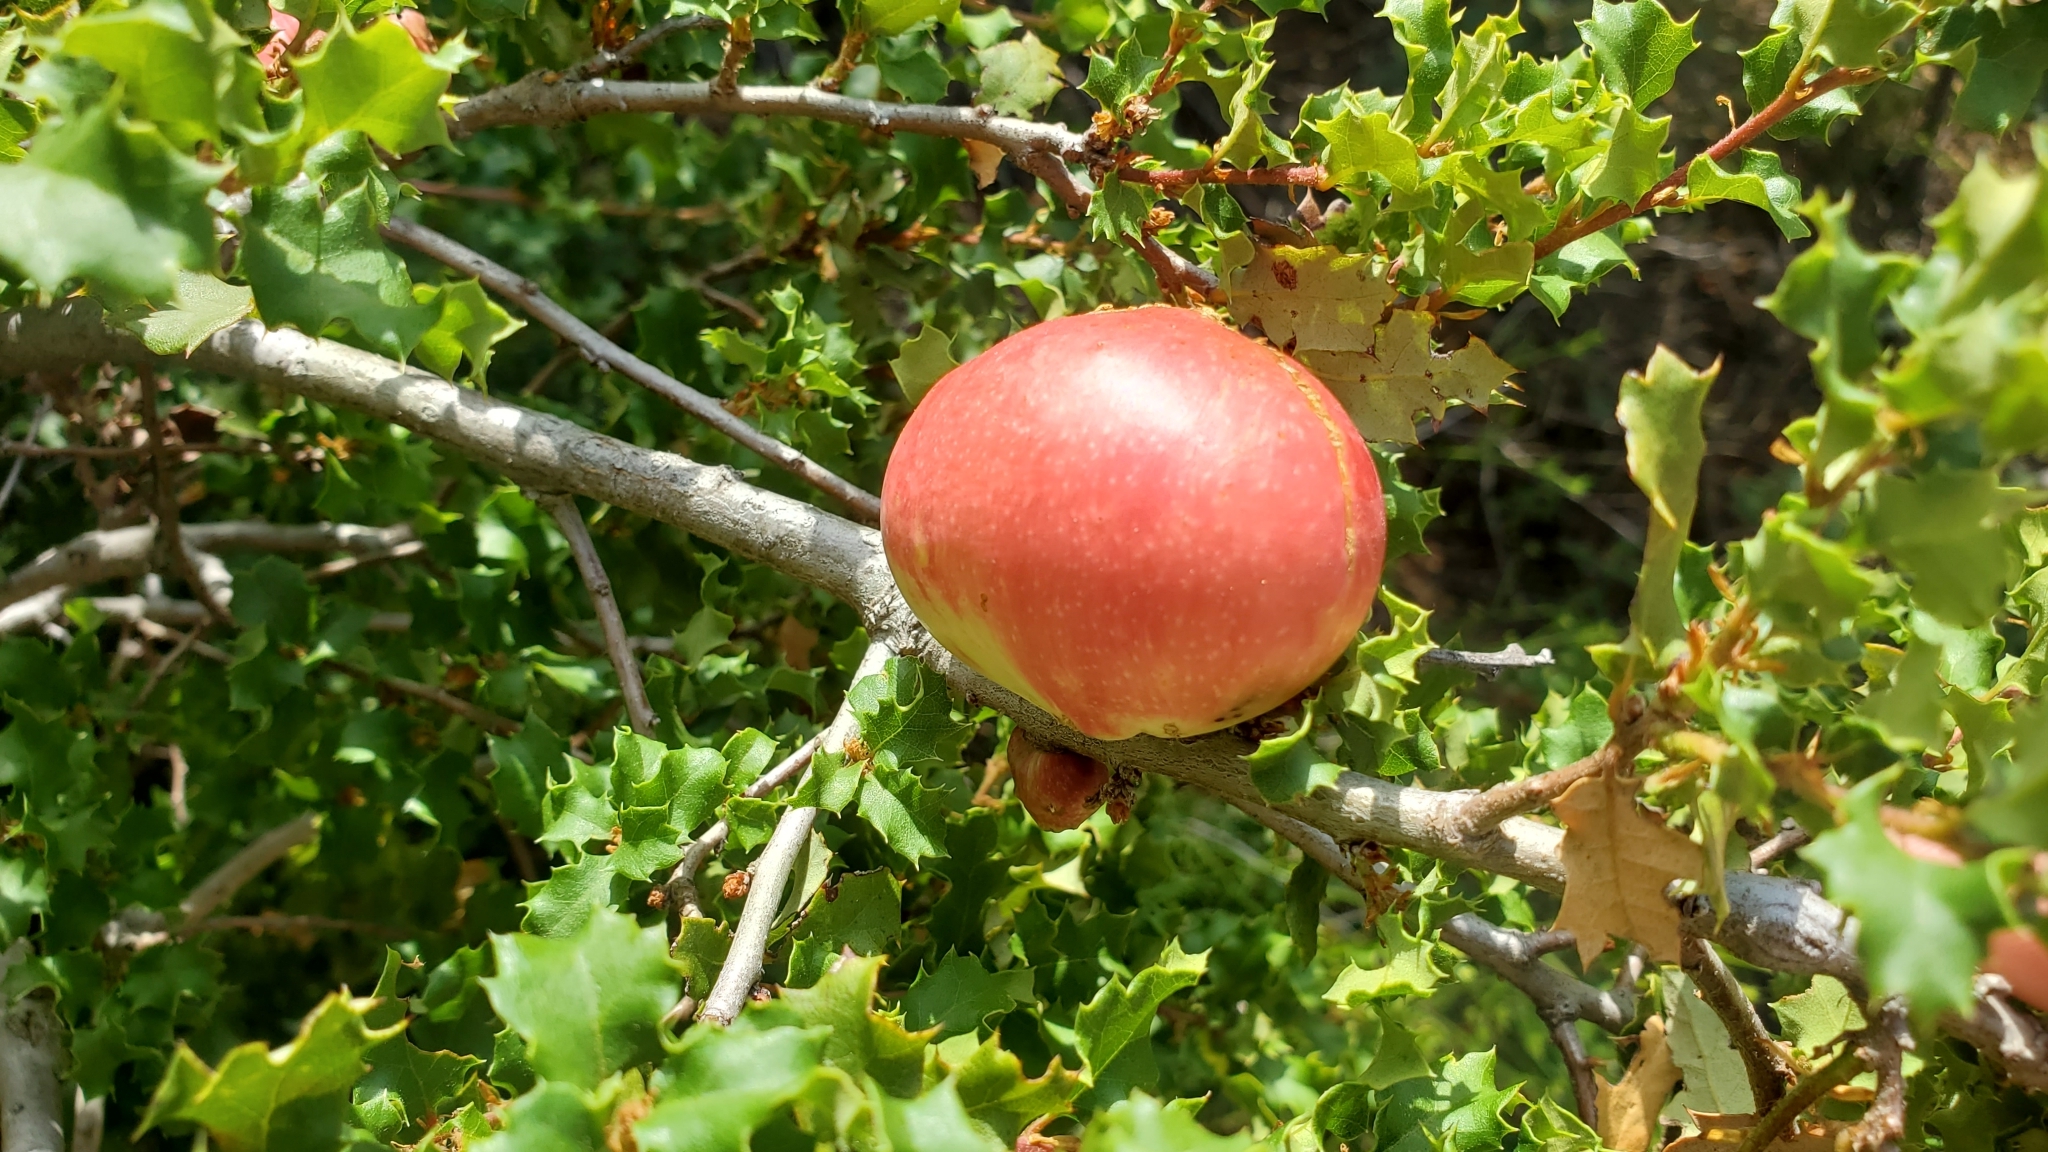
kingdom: Plantae
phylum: Tracheophyta
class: Magnoliopsida
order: Fagales
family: Fagaceae
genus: Quercus
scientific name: Quercus berberidifolia
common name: California scrub oak
